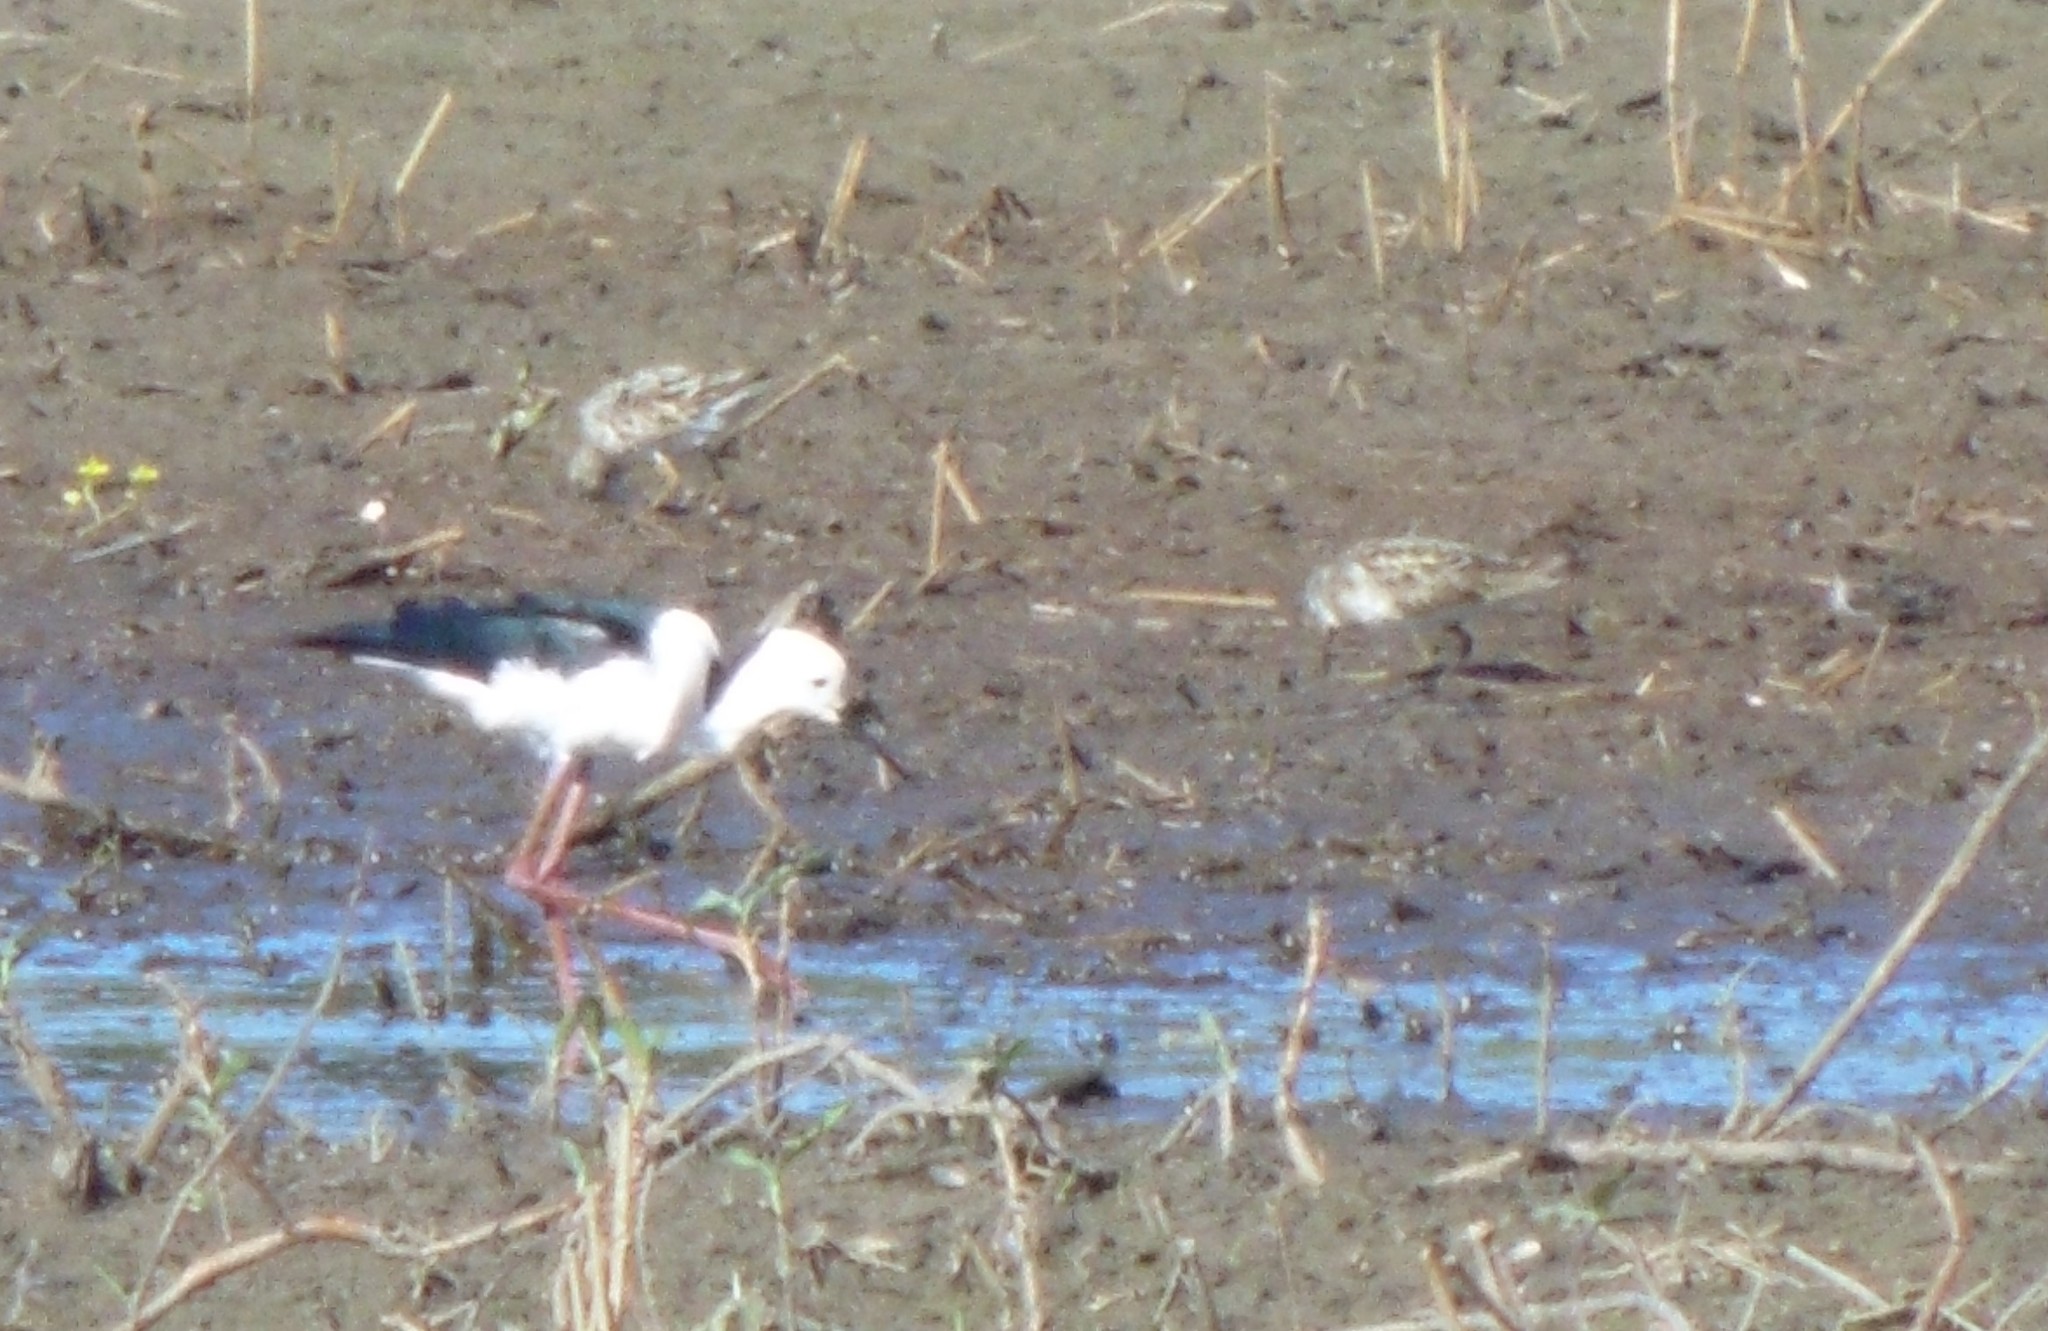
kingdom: Animalia
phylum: Chordata
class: Aves
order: Charadriiformes
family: Scolopacidae
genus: Calidris
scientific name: Calidris acuminata
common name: Sharp-tailed sandpiper
